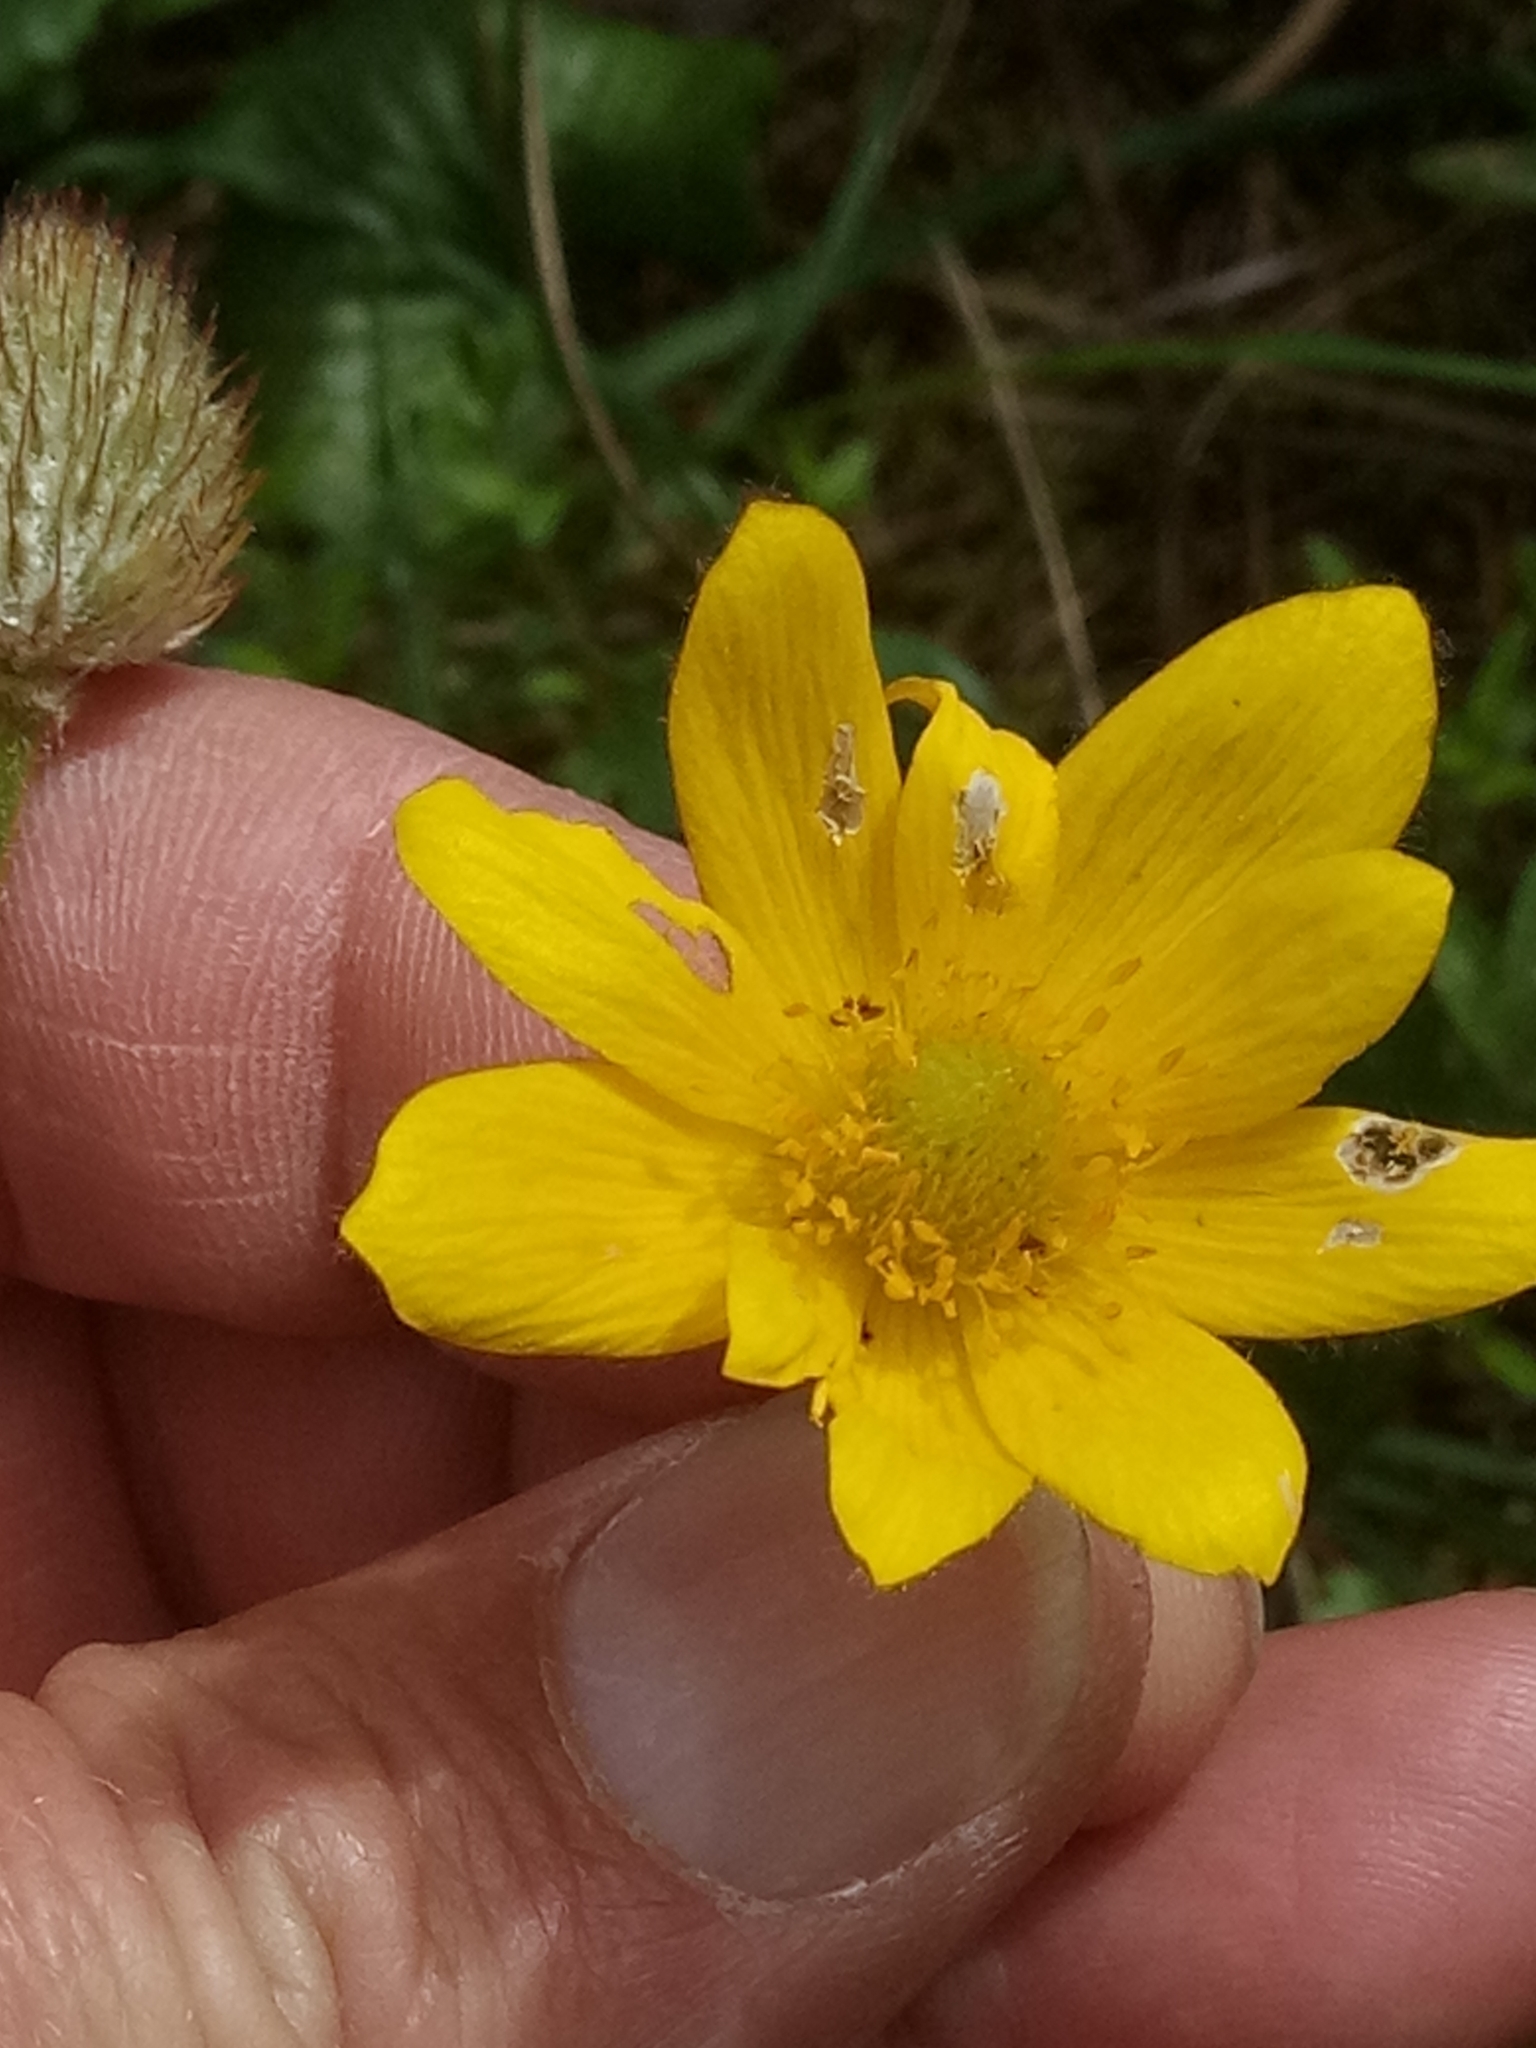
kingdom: Plantae
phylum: Tracheophyta
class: Magnoliopsida
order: Ranunculales
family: Ranunculaceae
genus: Anemone
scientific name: Anemone palmata
